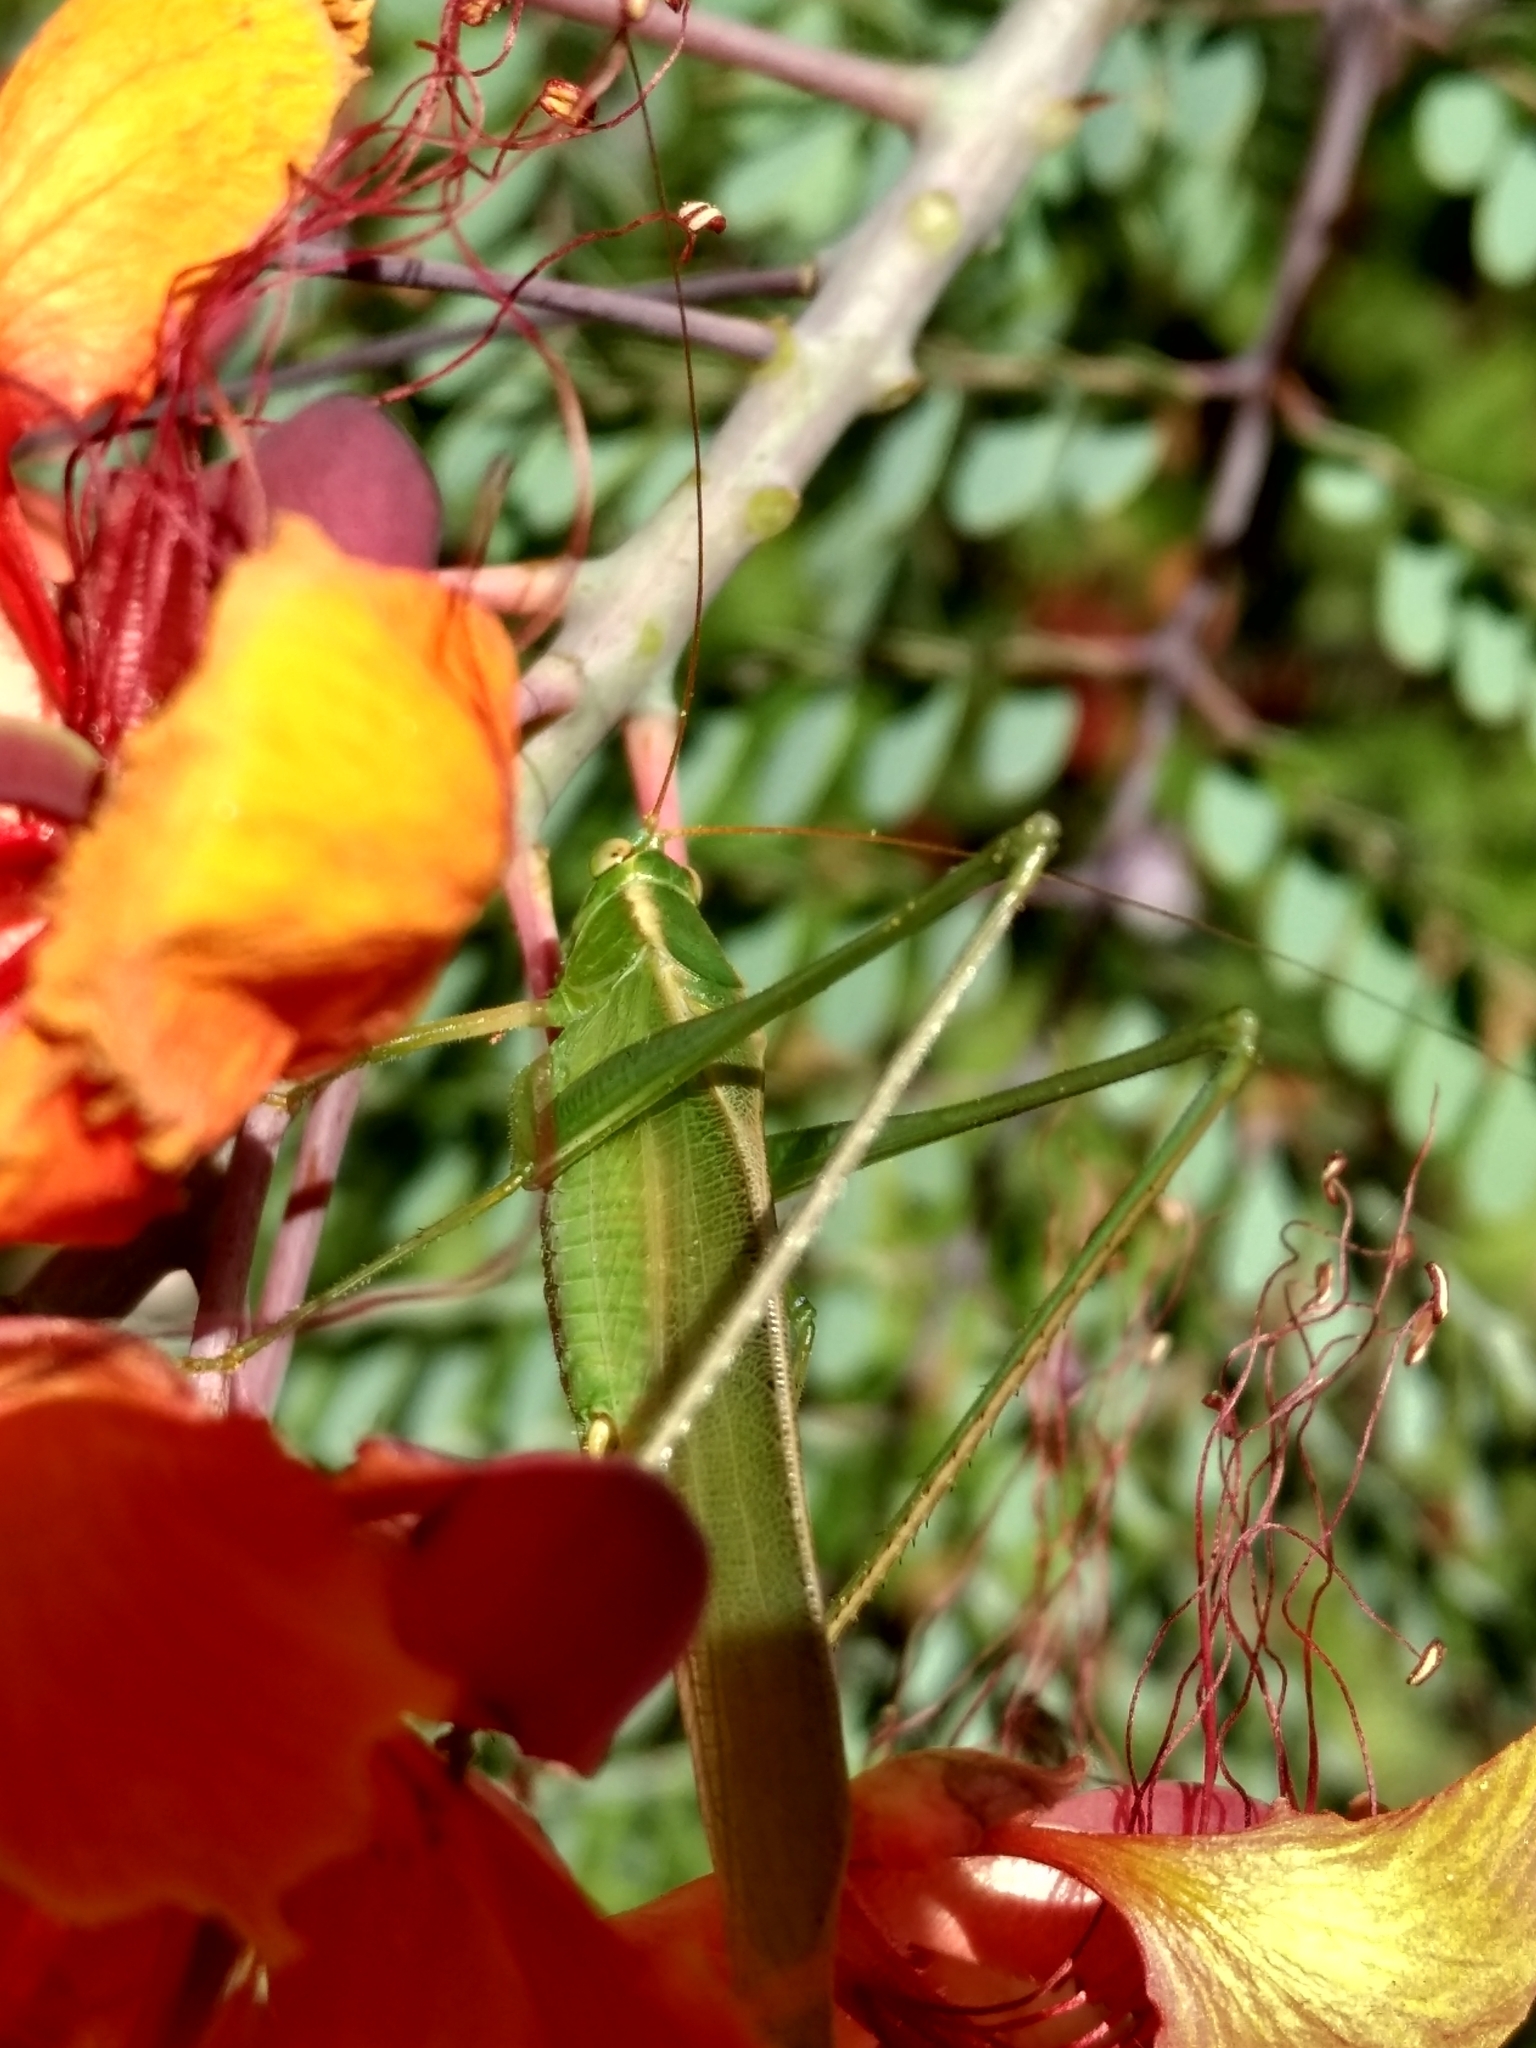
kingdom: Animalia
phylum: Arthropoda
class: Insecta
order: Orthoptera
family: Tettigoniidae
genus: Scudderia
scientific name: Scudderia mexicana
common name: Mexican bush katydid
